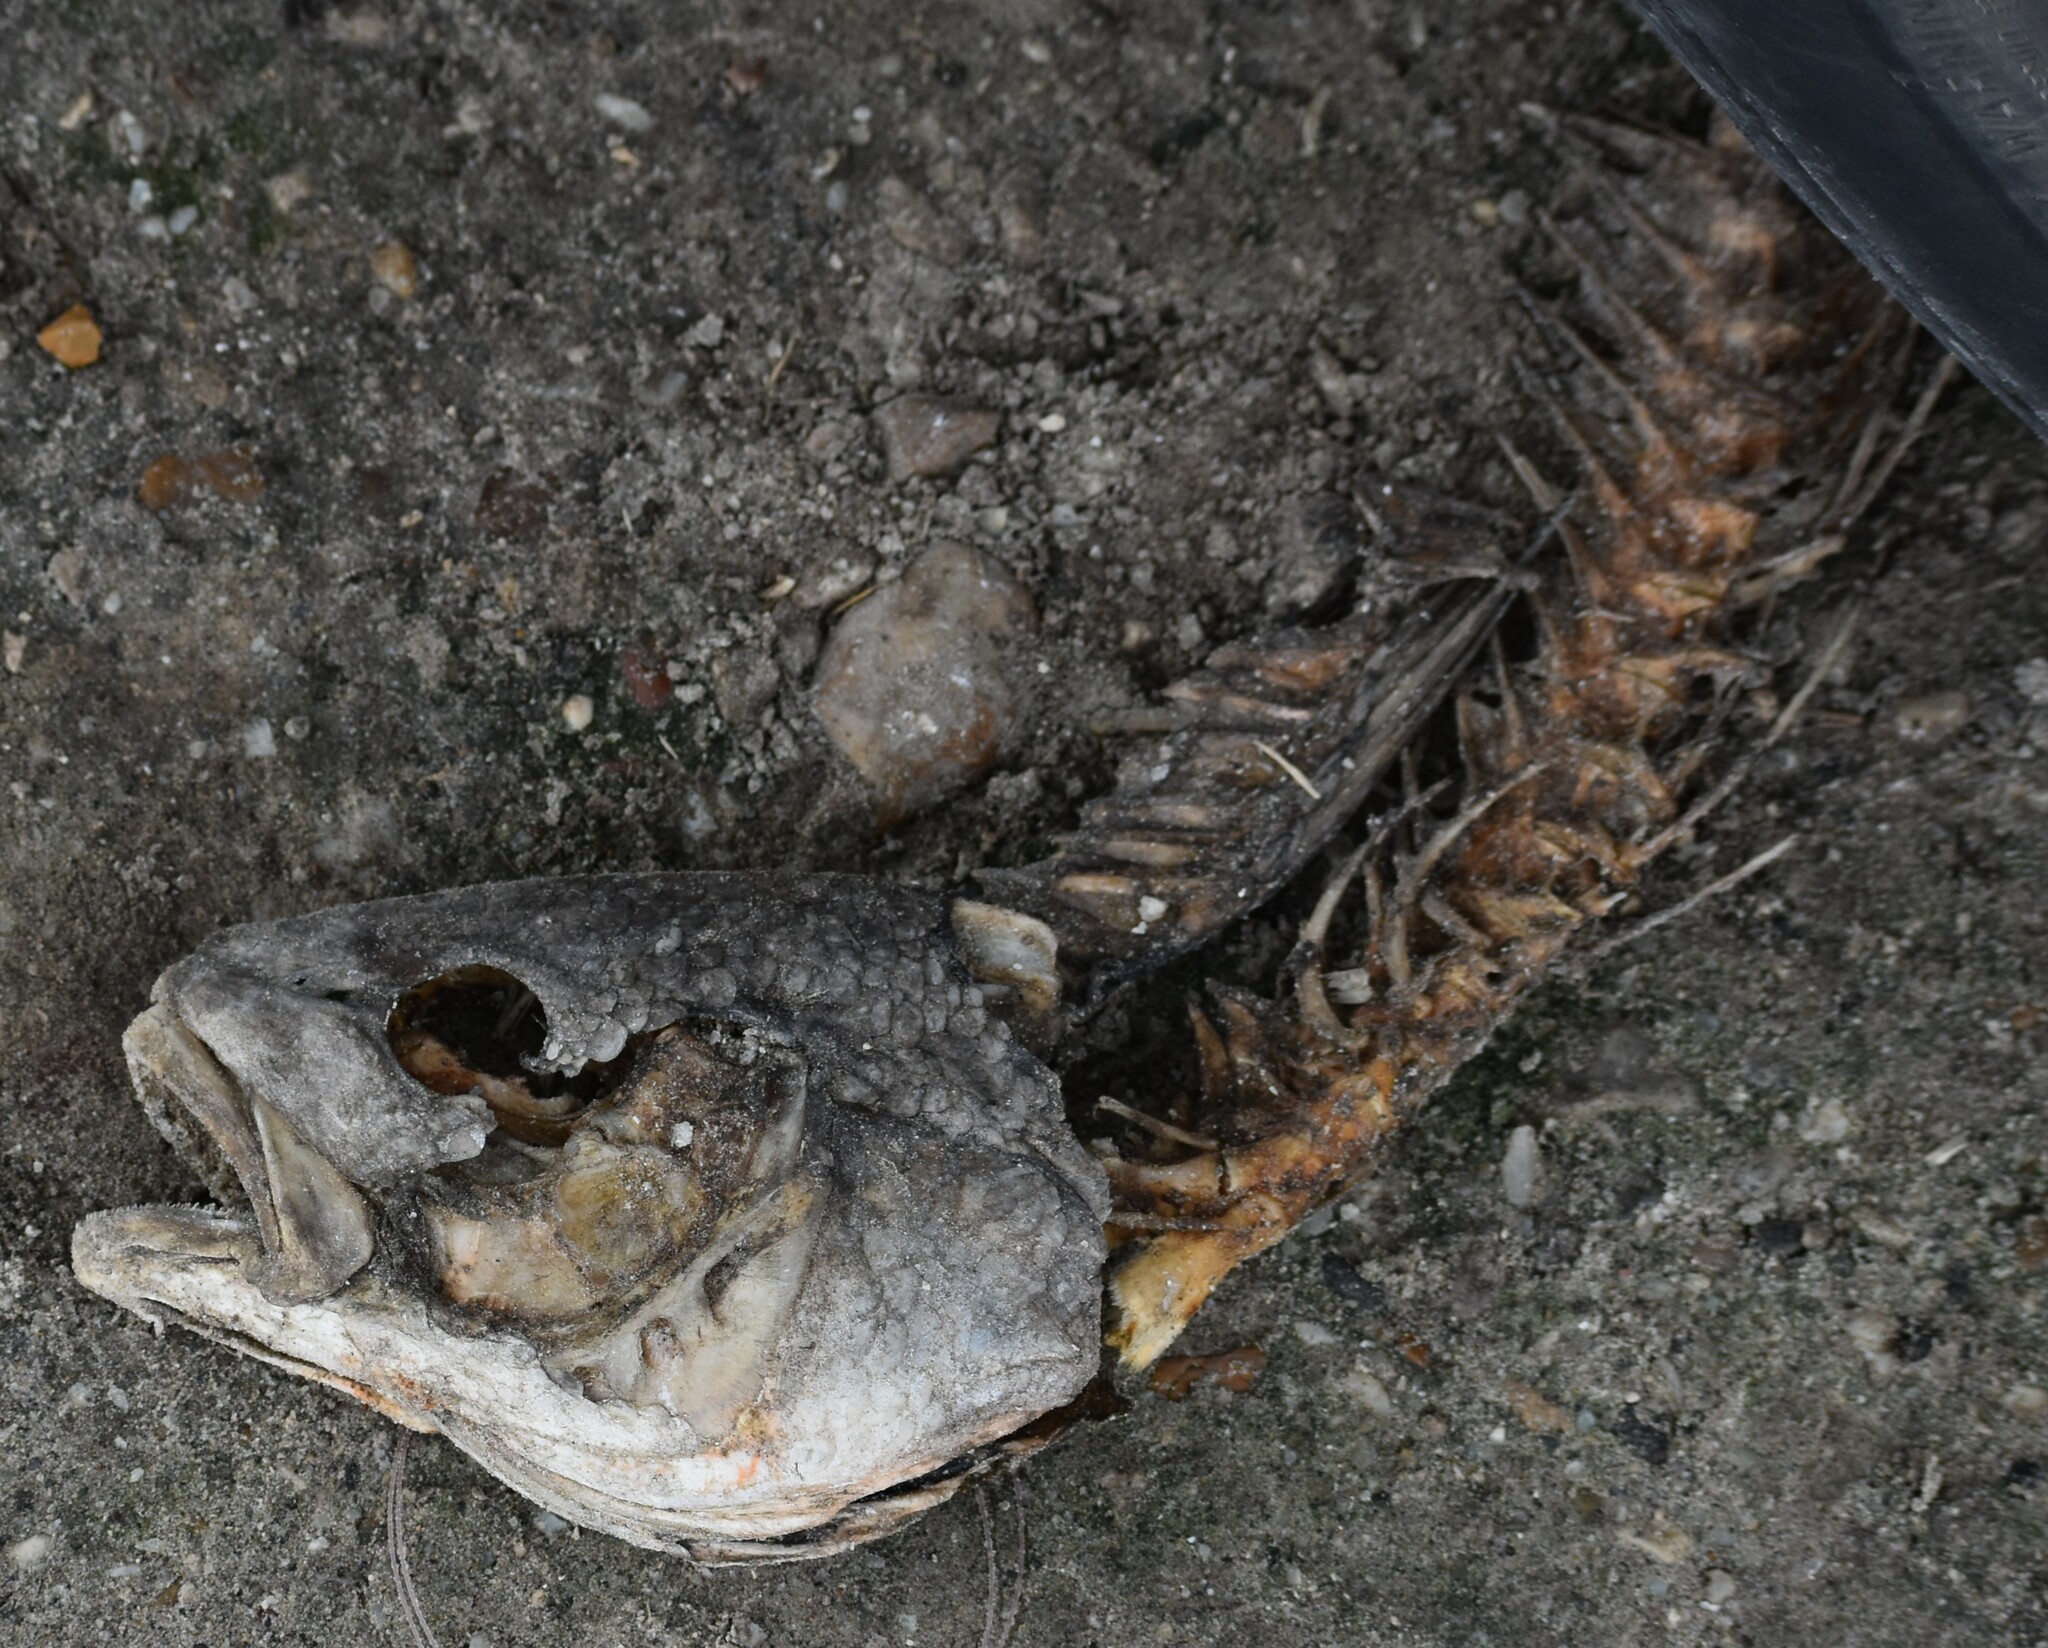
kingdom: Animalia
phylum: Chordata
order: Perciformes
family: Sciaenidae
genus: Sciaenops
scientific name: Sciaenops ocellatus
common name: Red drum
